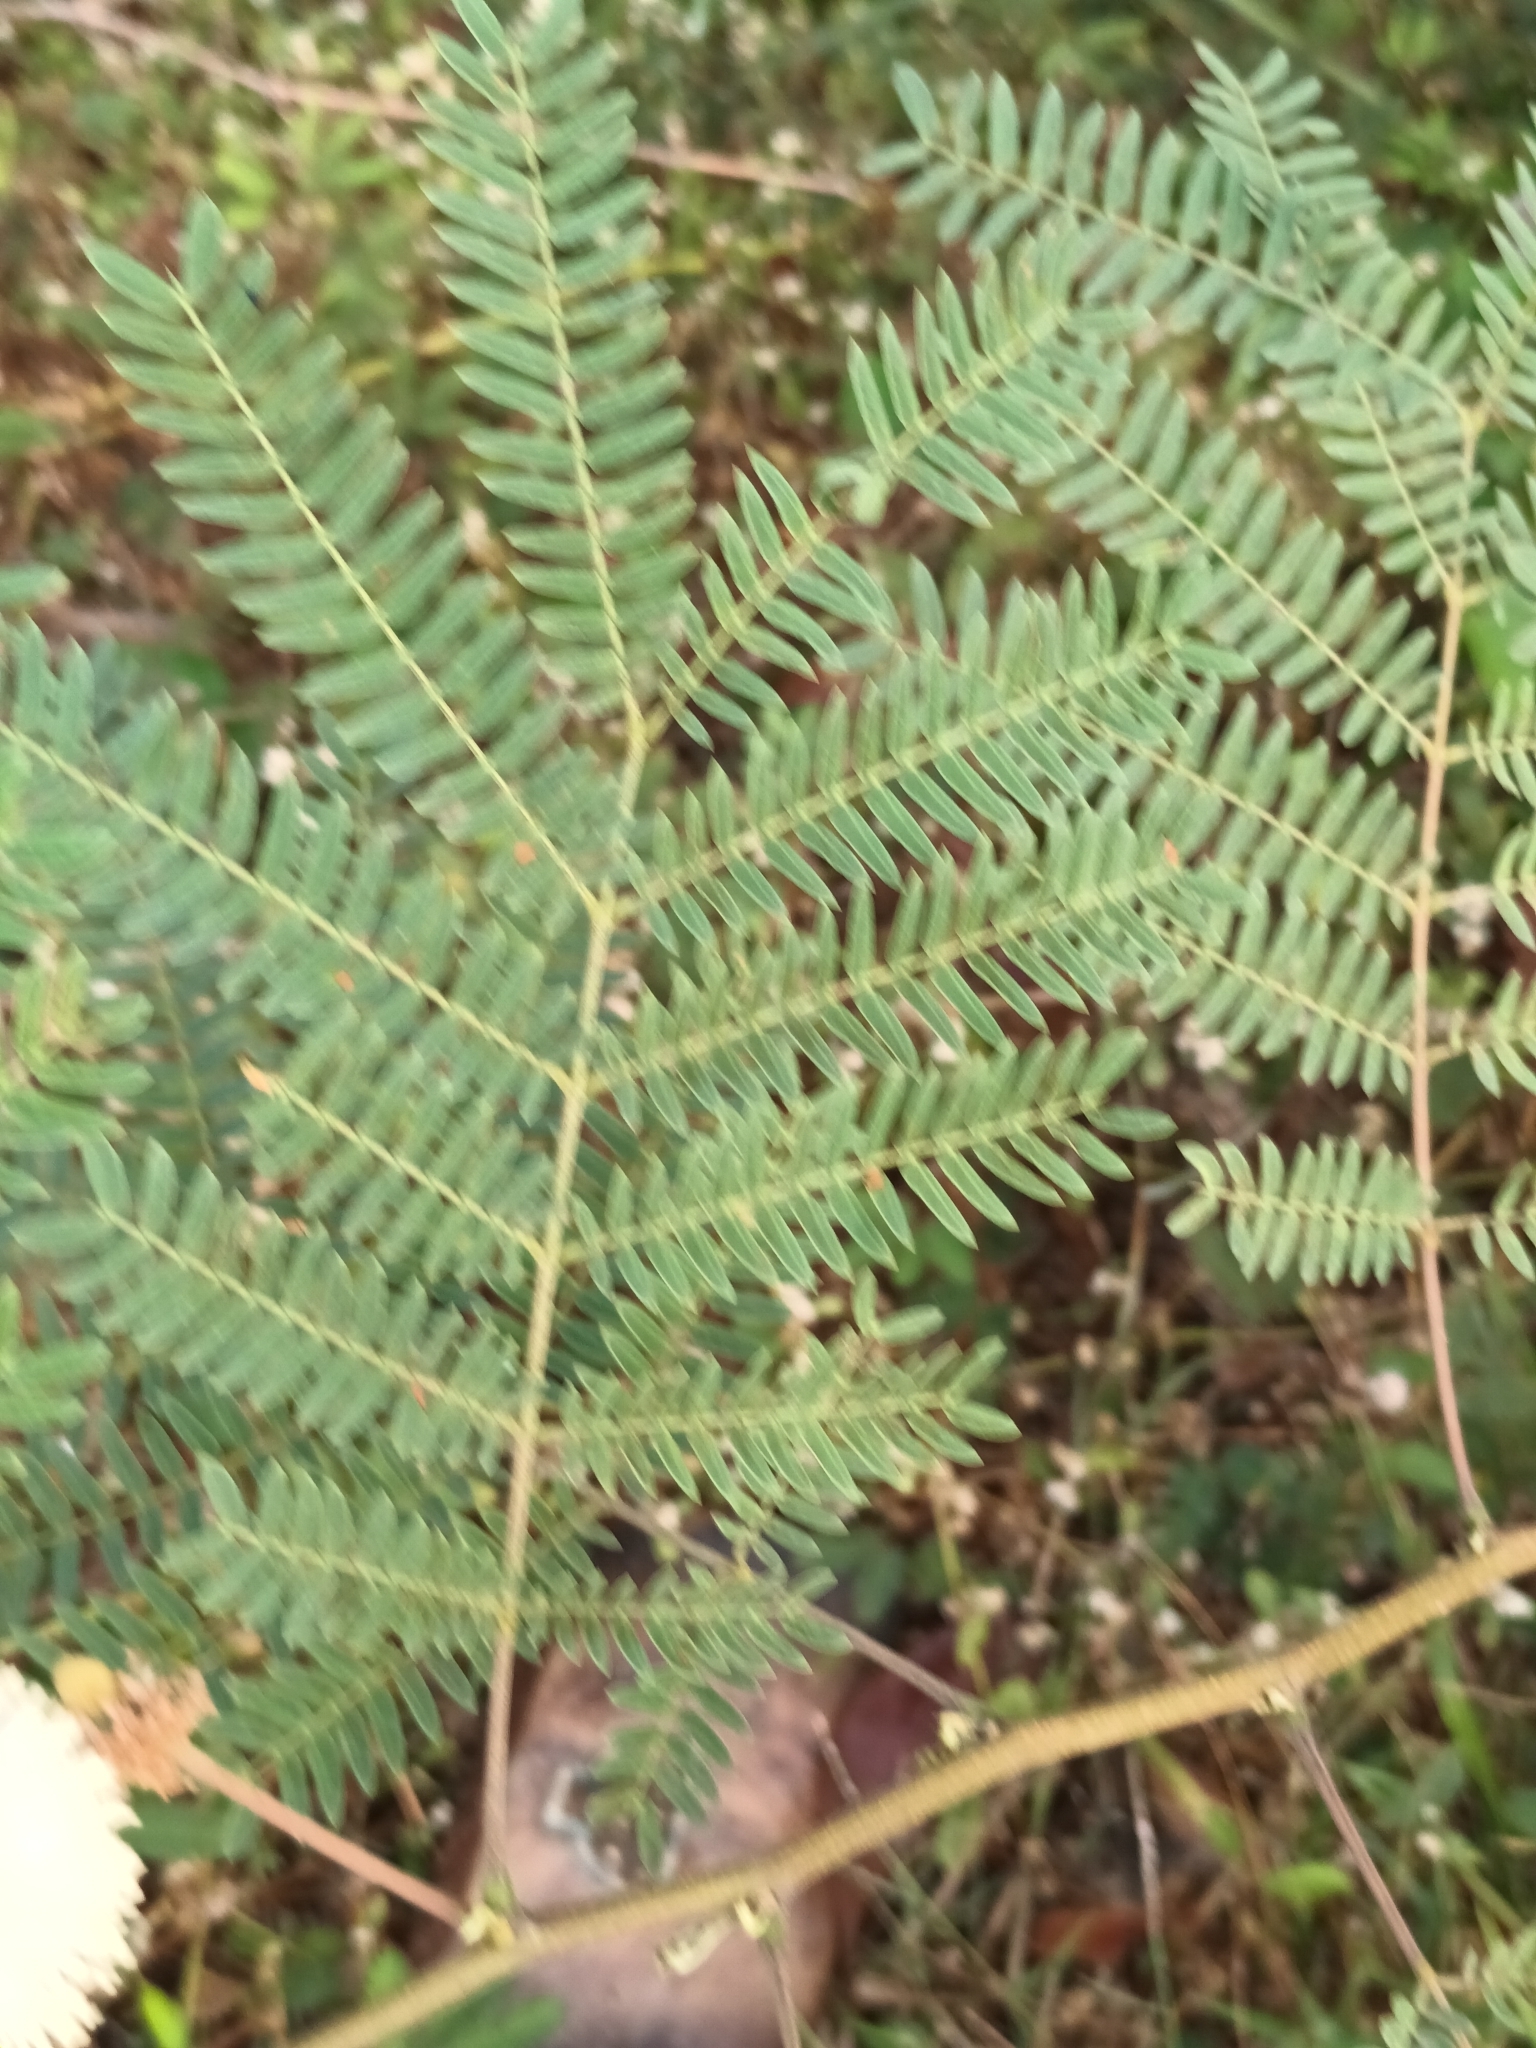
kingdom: Plantae
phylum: Tracheophyta
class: Magnoliopsida
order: Fabales
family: Fabaceae
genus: Leucaena
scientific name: Leucaena leucocephala
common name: White leadtree
